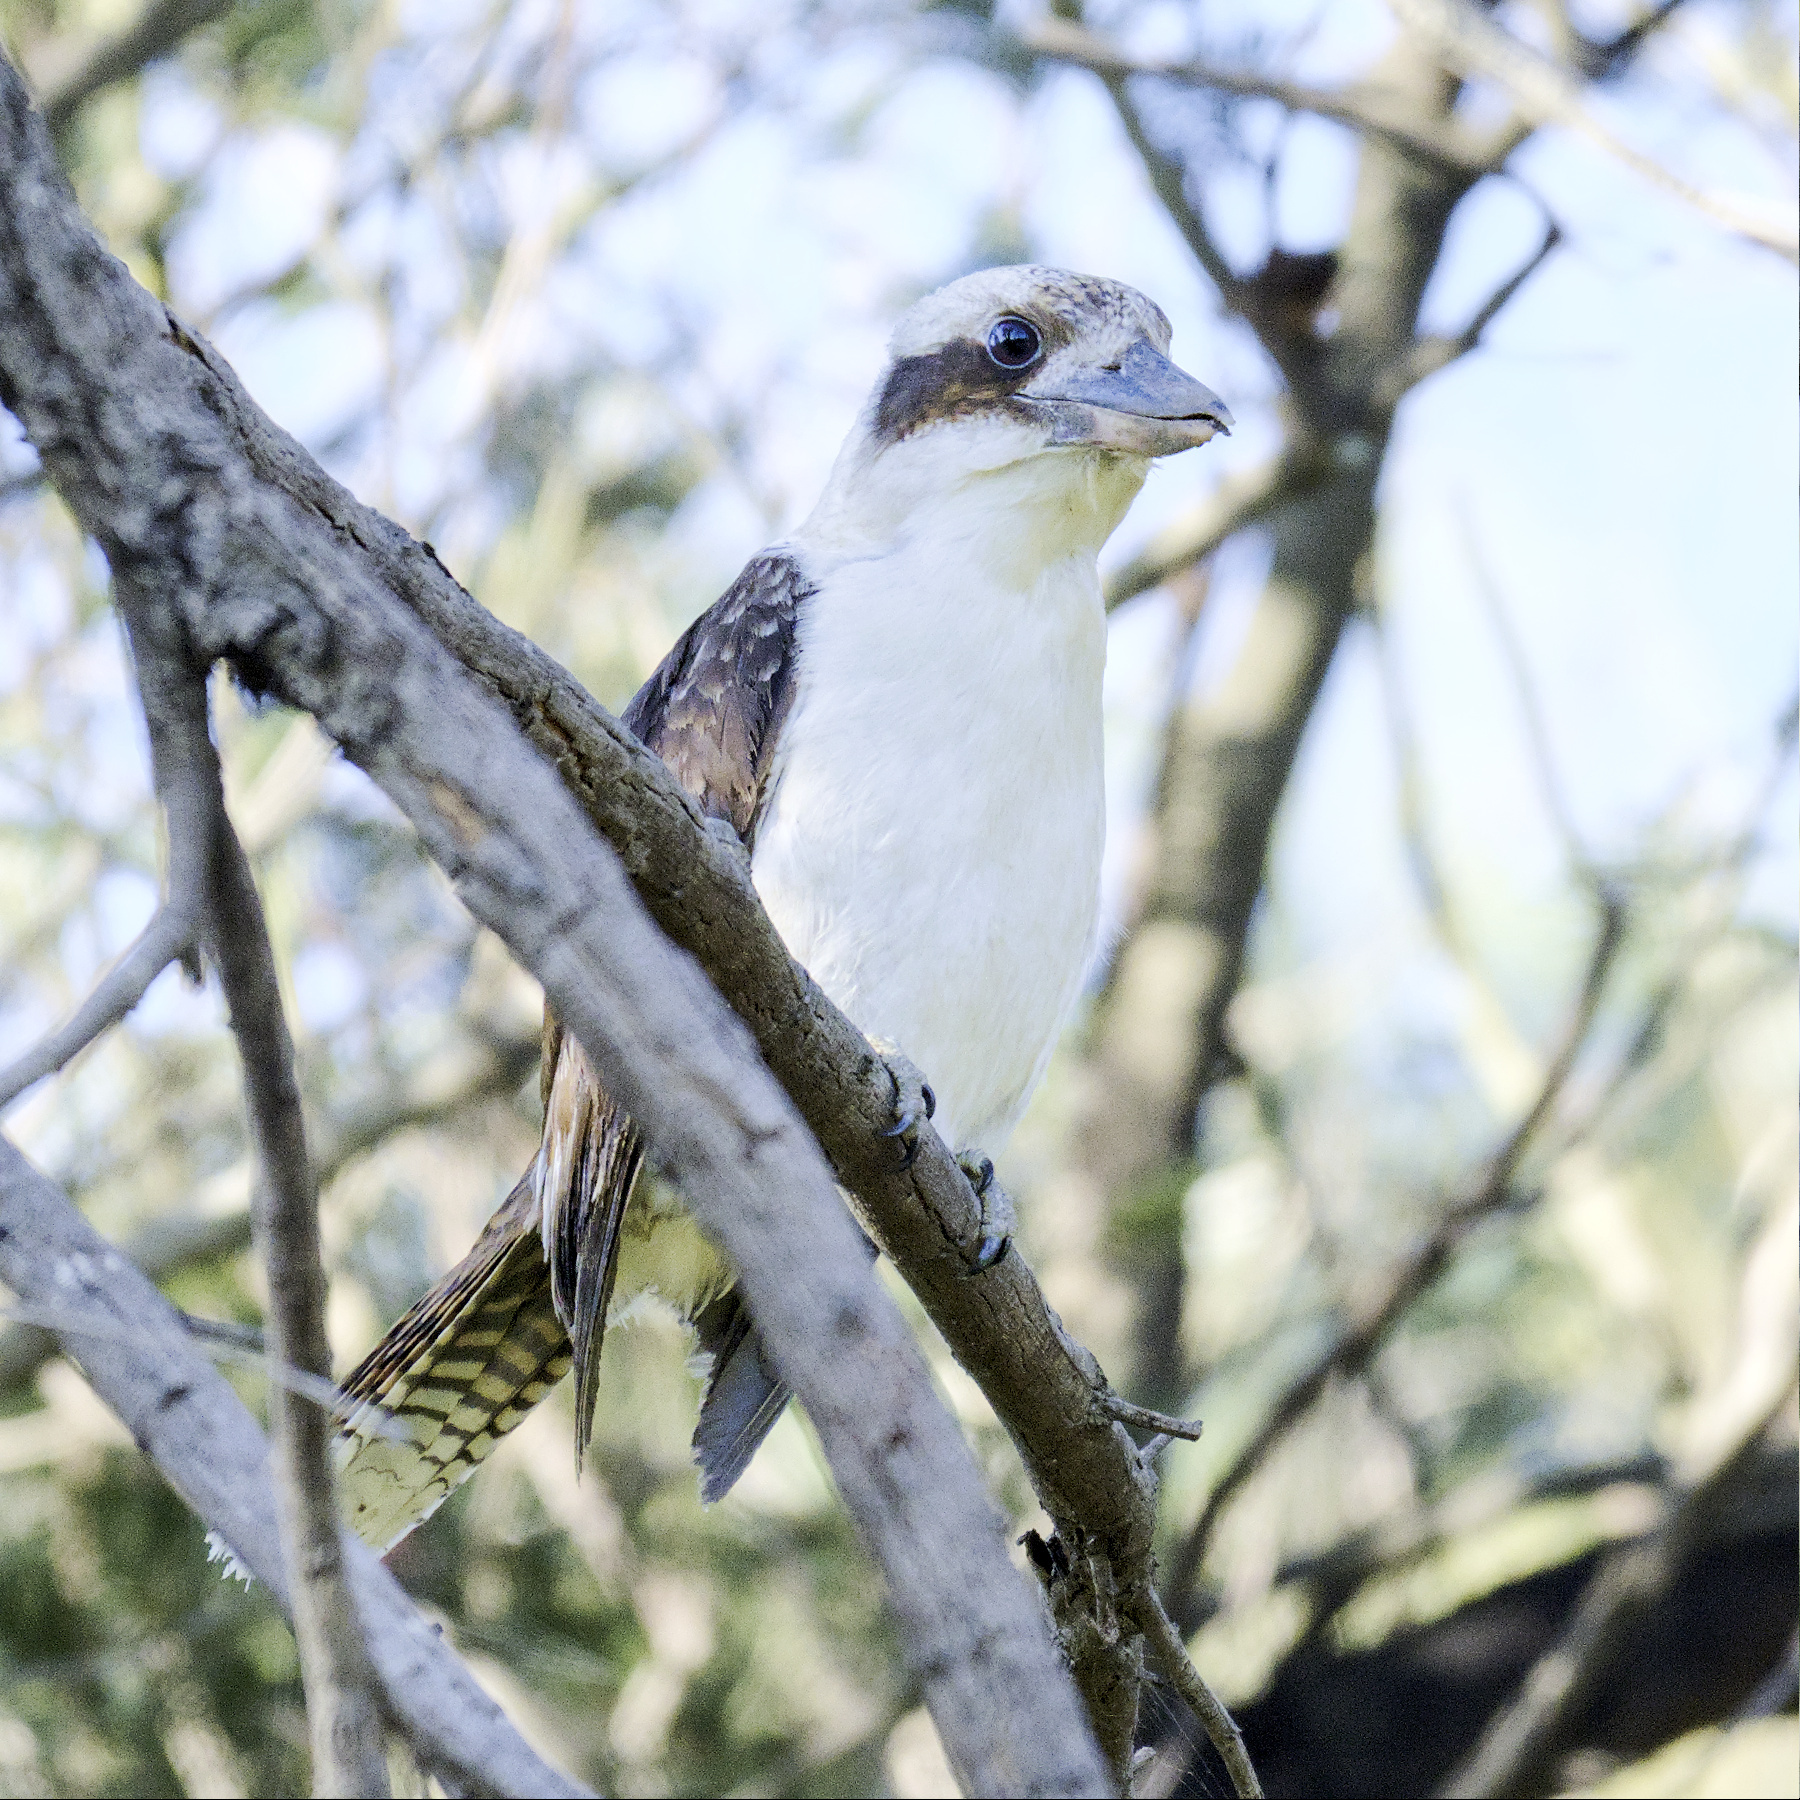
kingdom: Animalia
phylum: Chordata
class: Aves
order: Coraciiformes
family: Alcedinidae
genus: Dacelo
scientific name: Dacelo novaeguineae
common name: Laughing kookaburra
